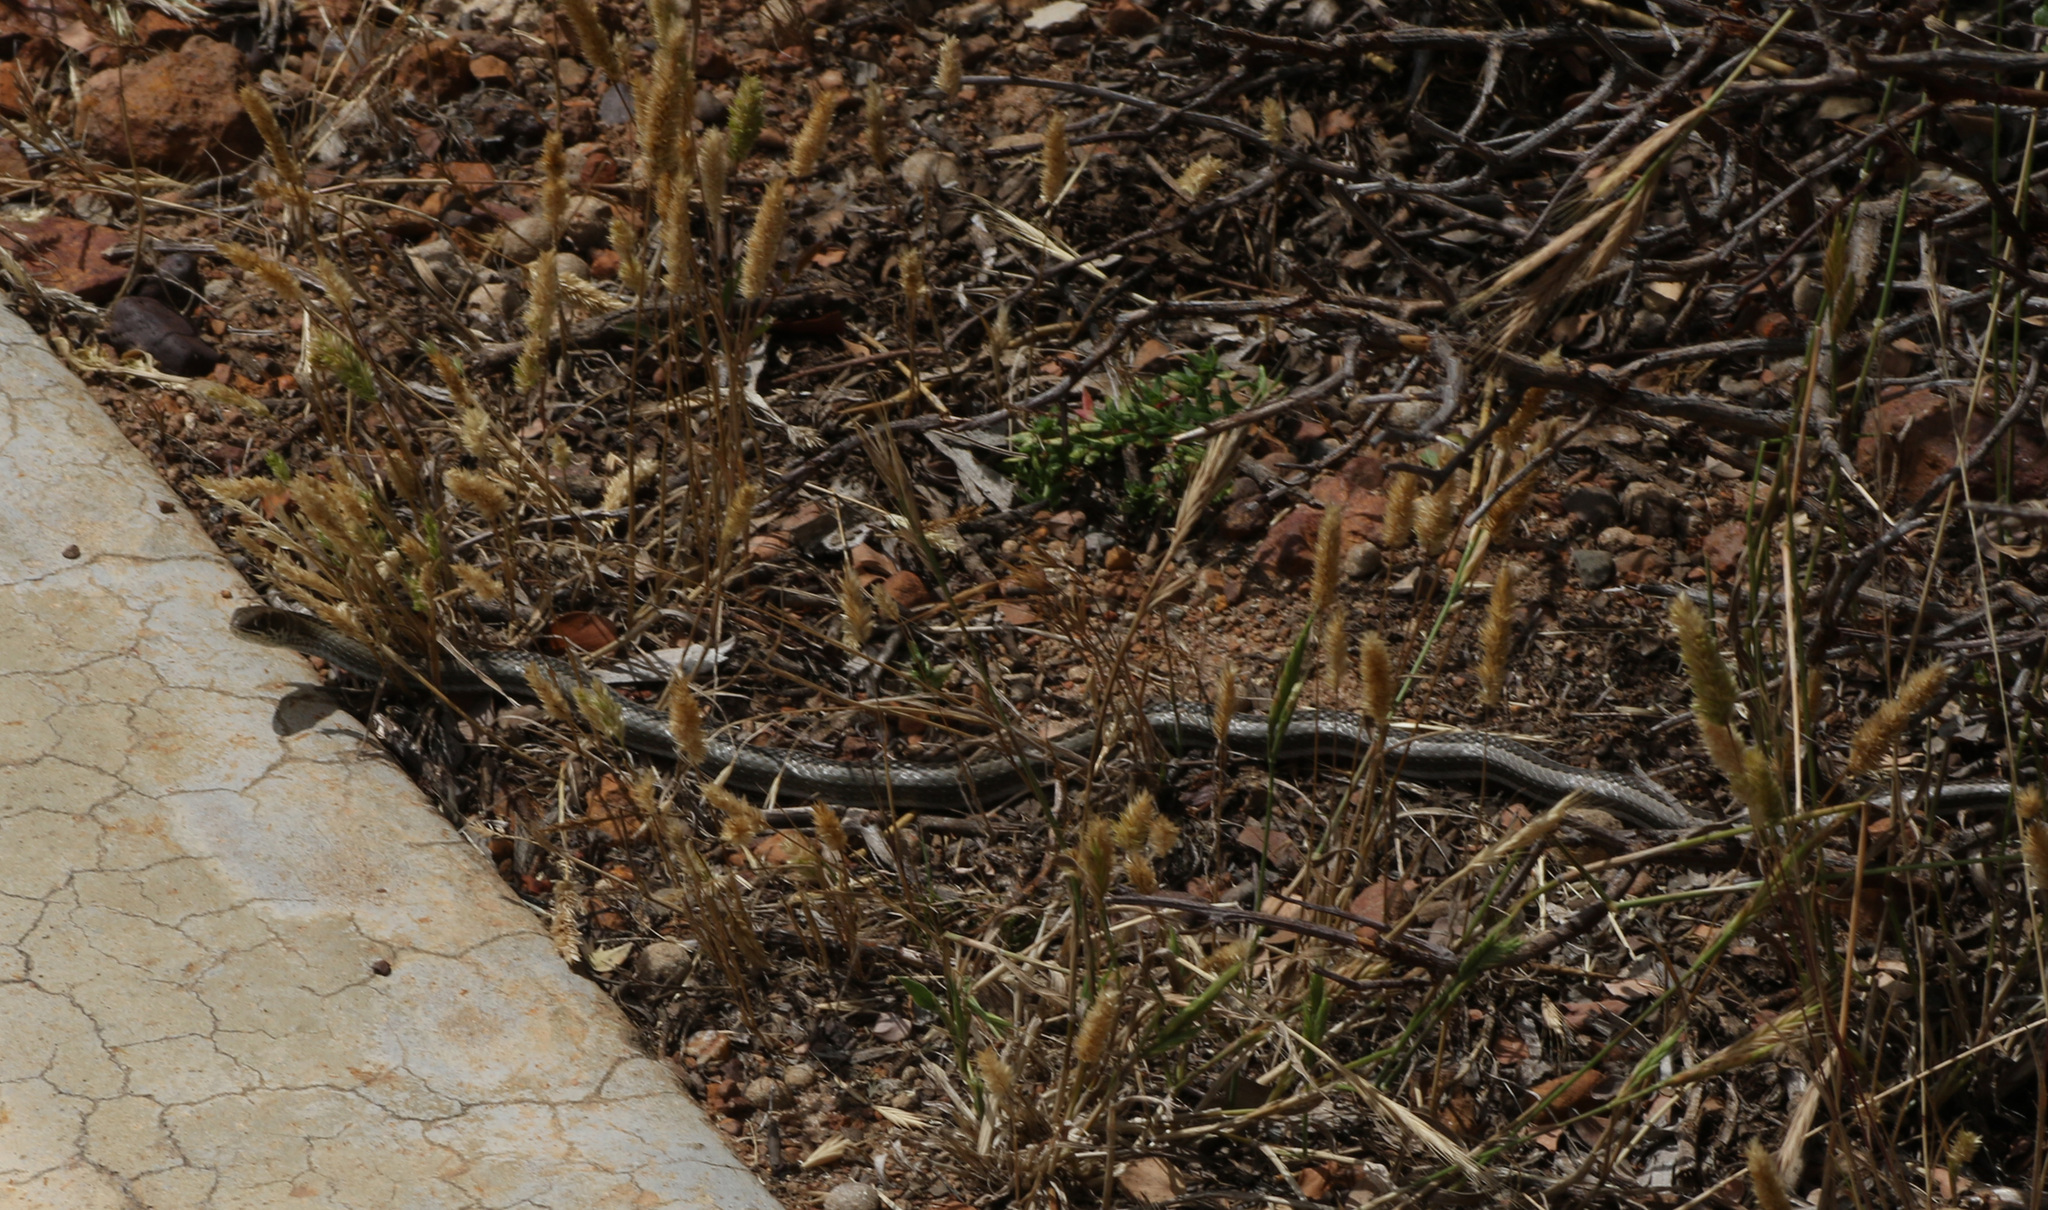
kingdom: Animalia
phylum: Chordata
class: Squamata
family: Psammophiidae
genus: Psammophis
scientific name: Psammophis crucifer
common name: Cross-marked grass snake
